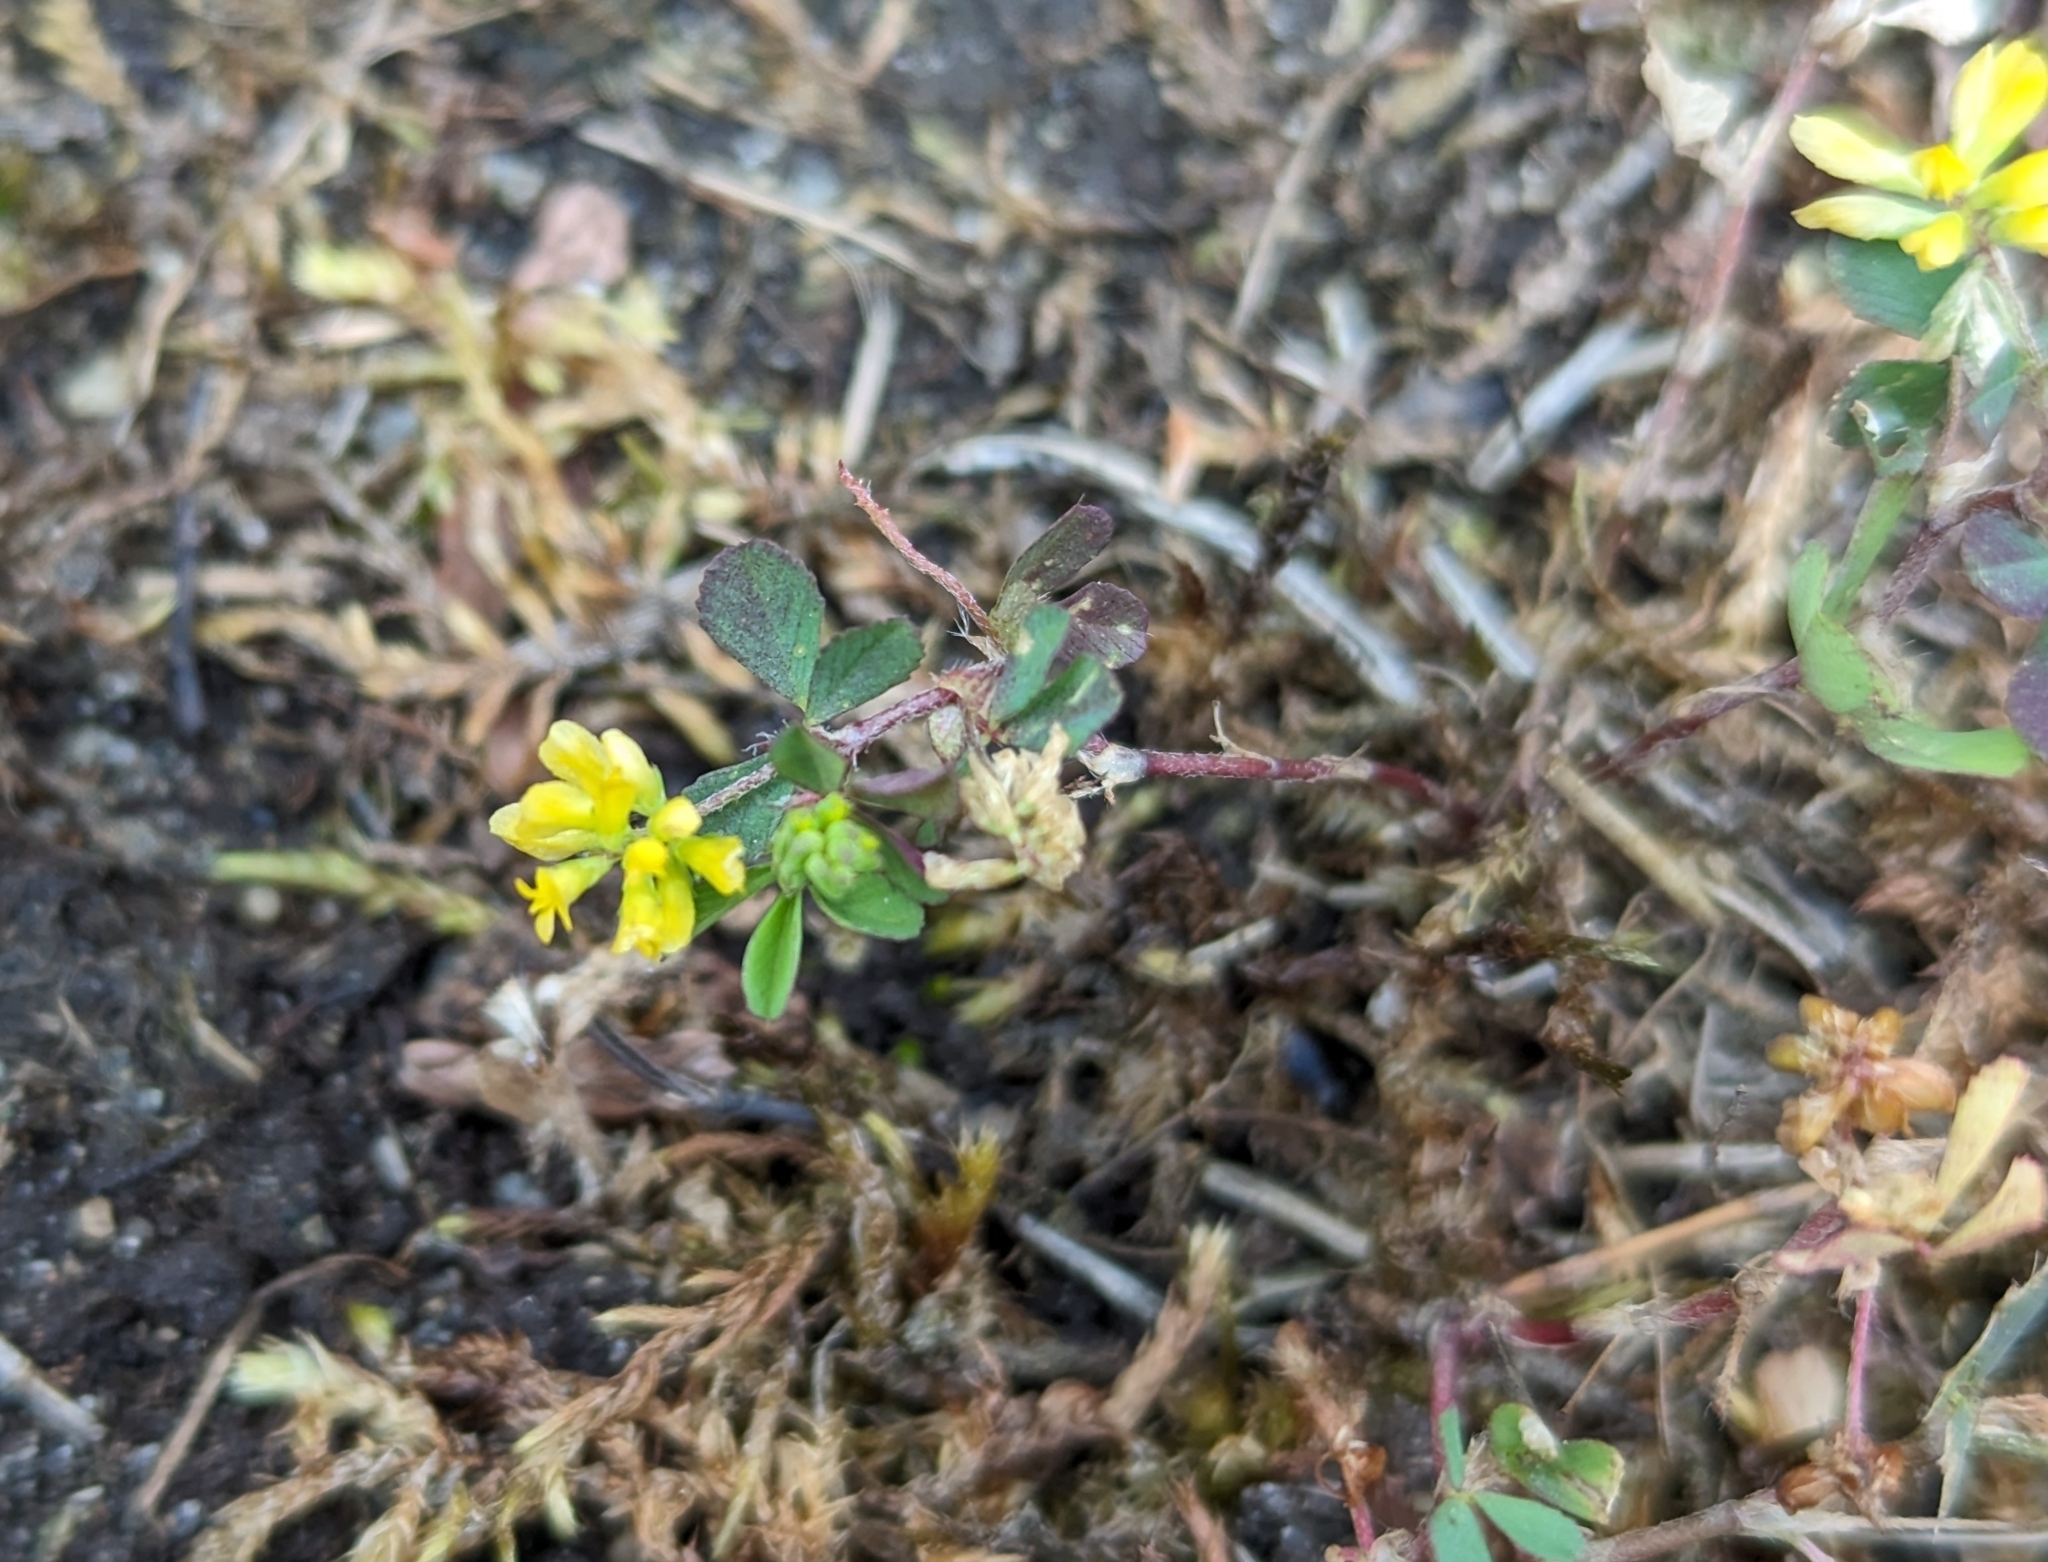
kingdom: Plantae
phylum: Tracheophyta
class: Magnoliopsida
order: Fabales
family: Fabaceae
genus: Trifolium
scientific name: Trifolium dubium
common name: Suckling clover
